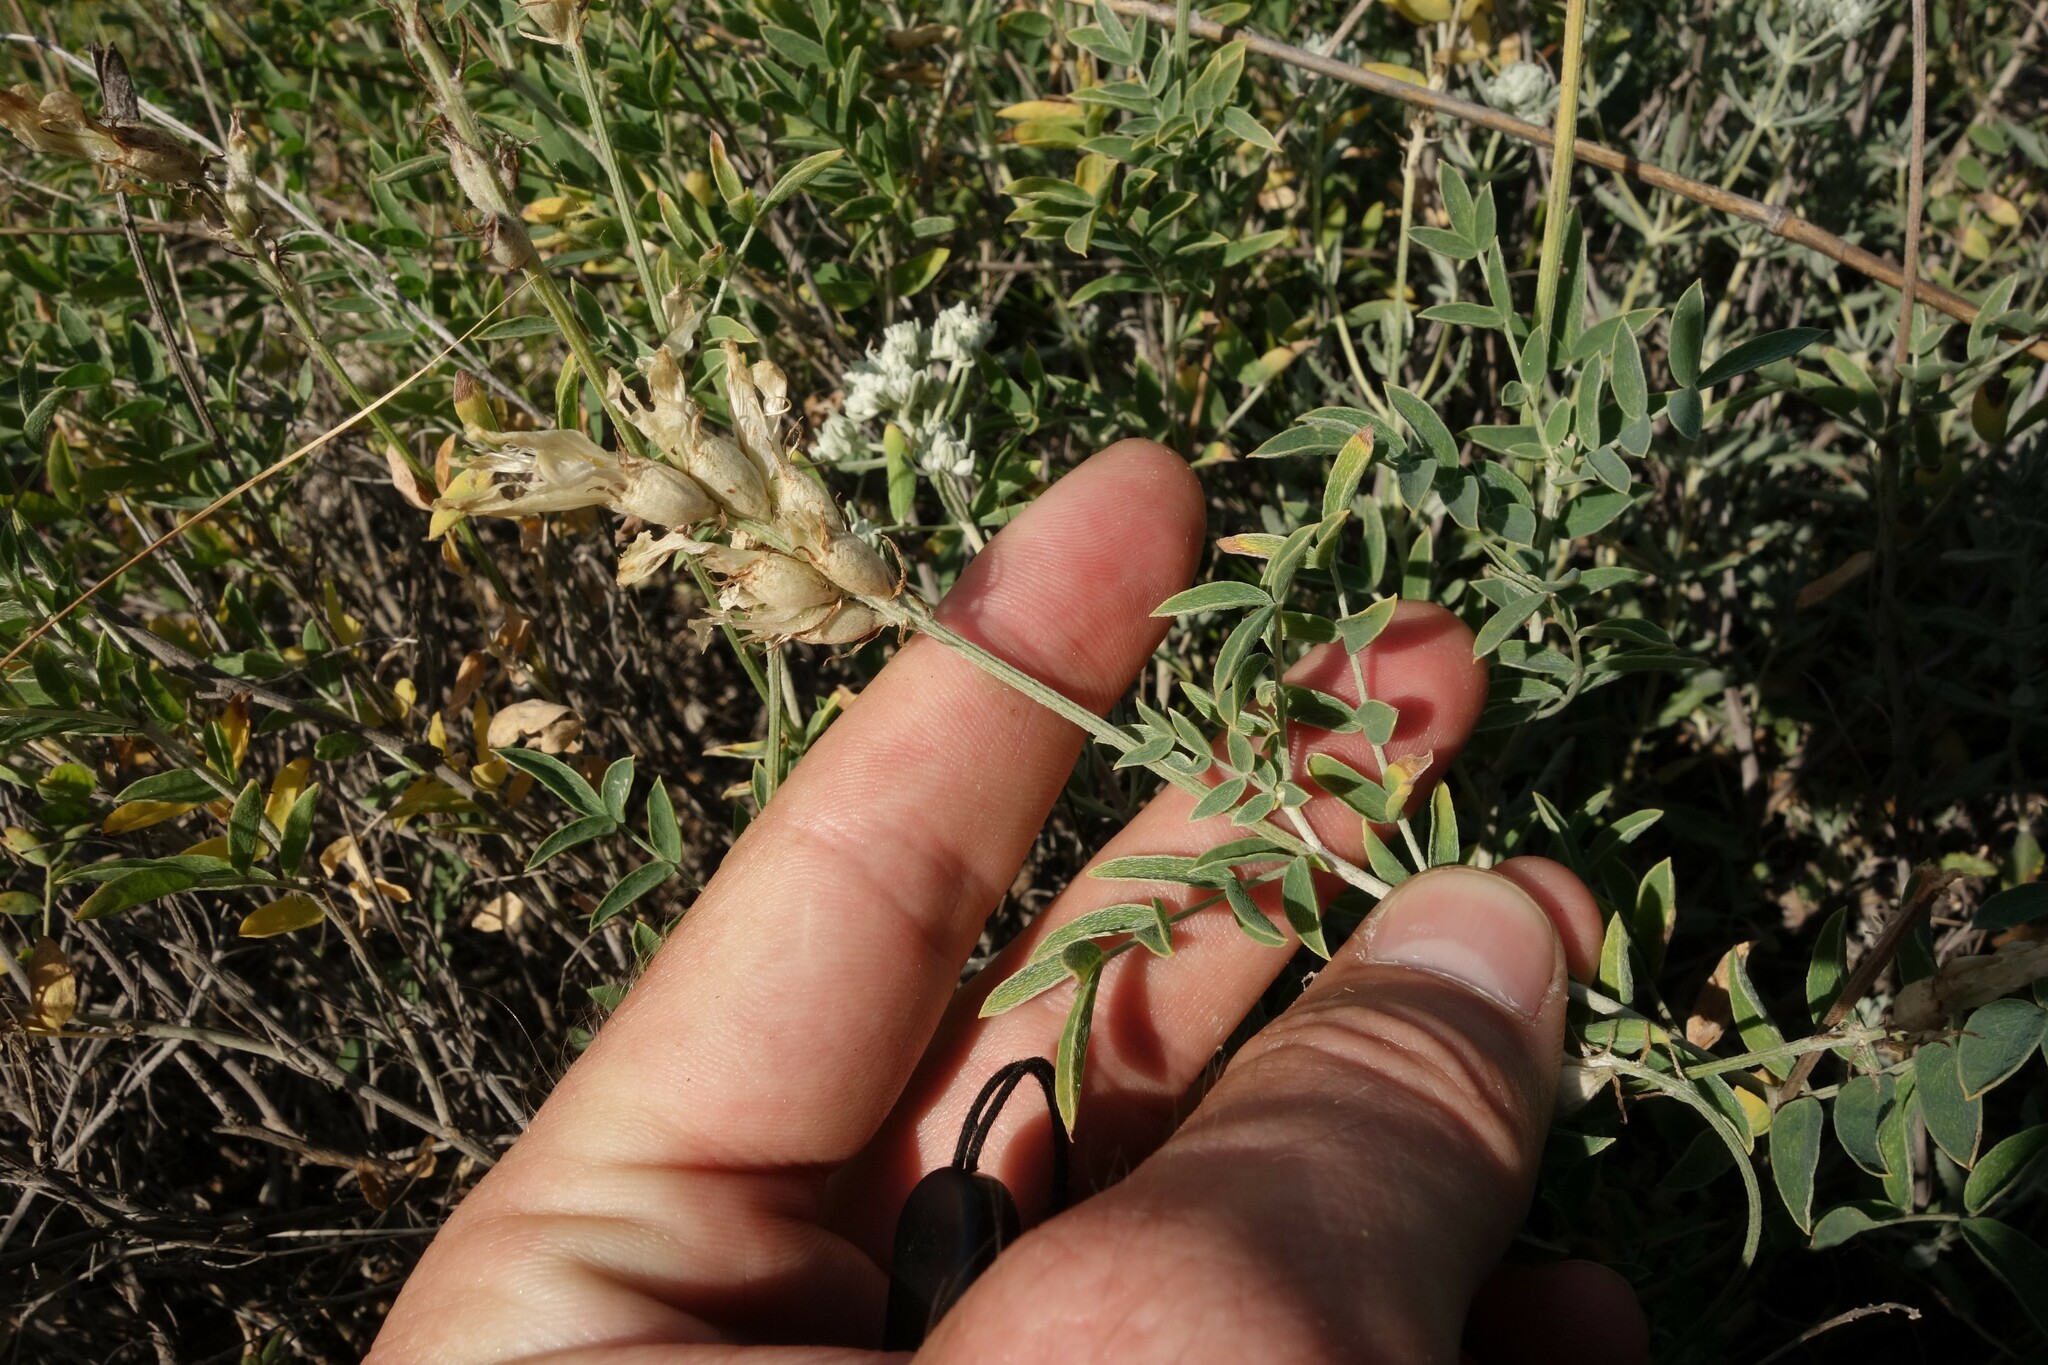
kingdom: Plantae
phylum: Tracheophyta
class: Magnoliopsida
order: Fabales
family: Fabaceae
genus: Astragalus
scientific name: Astragalus albicaulis
